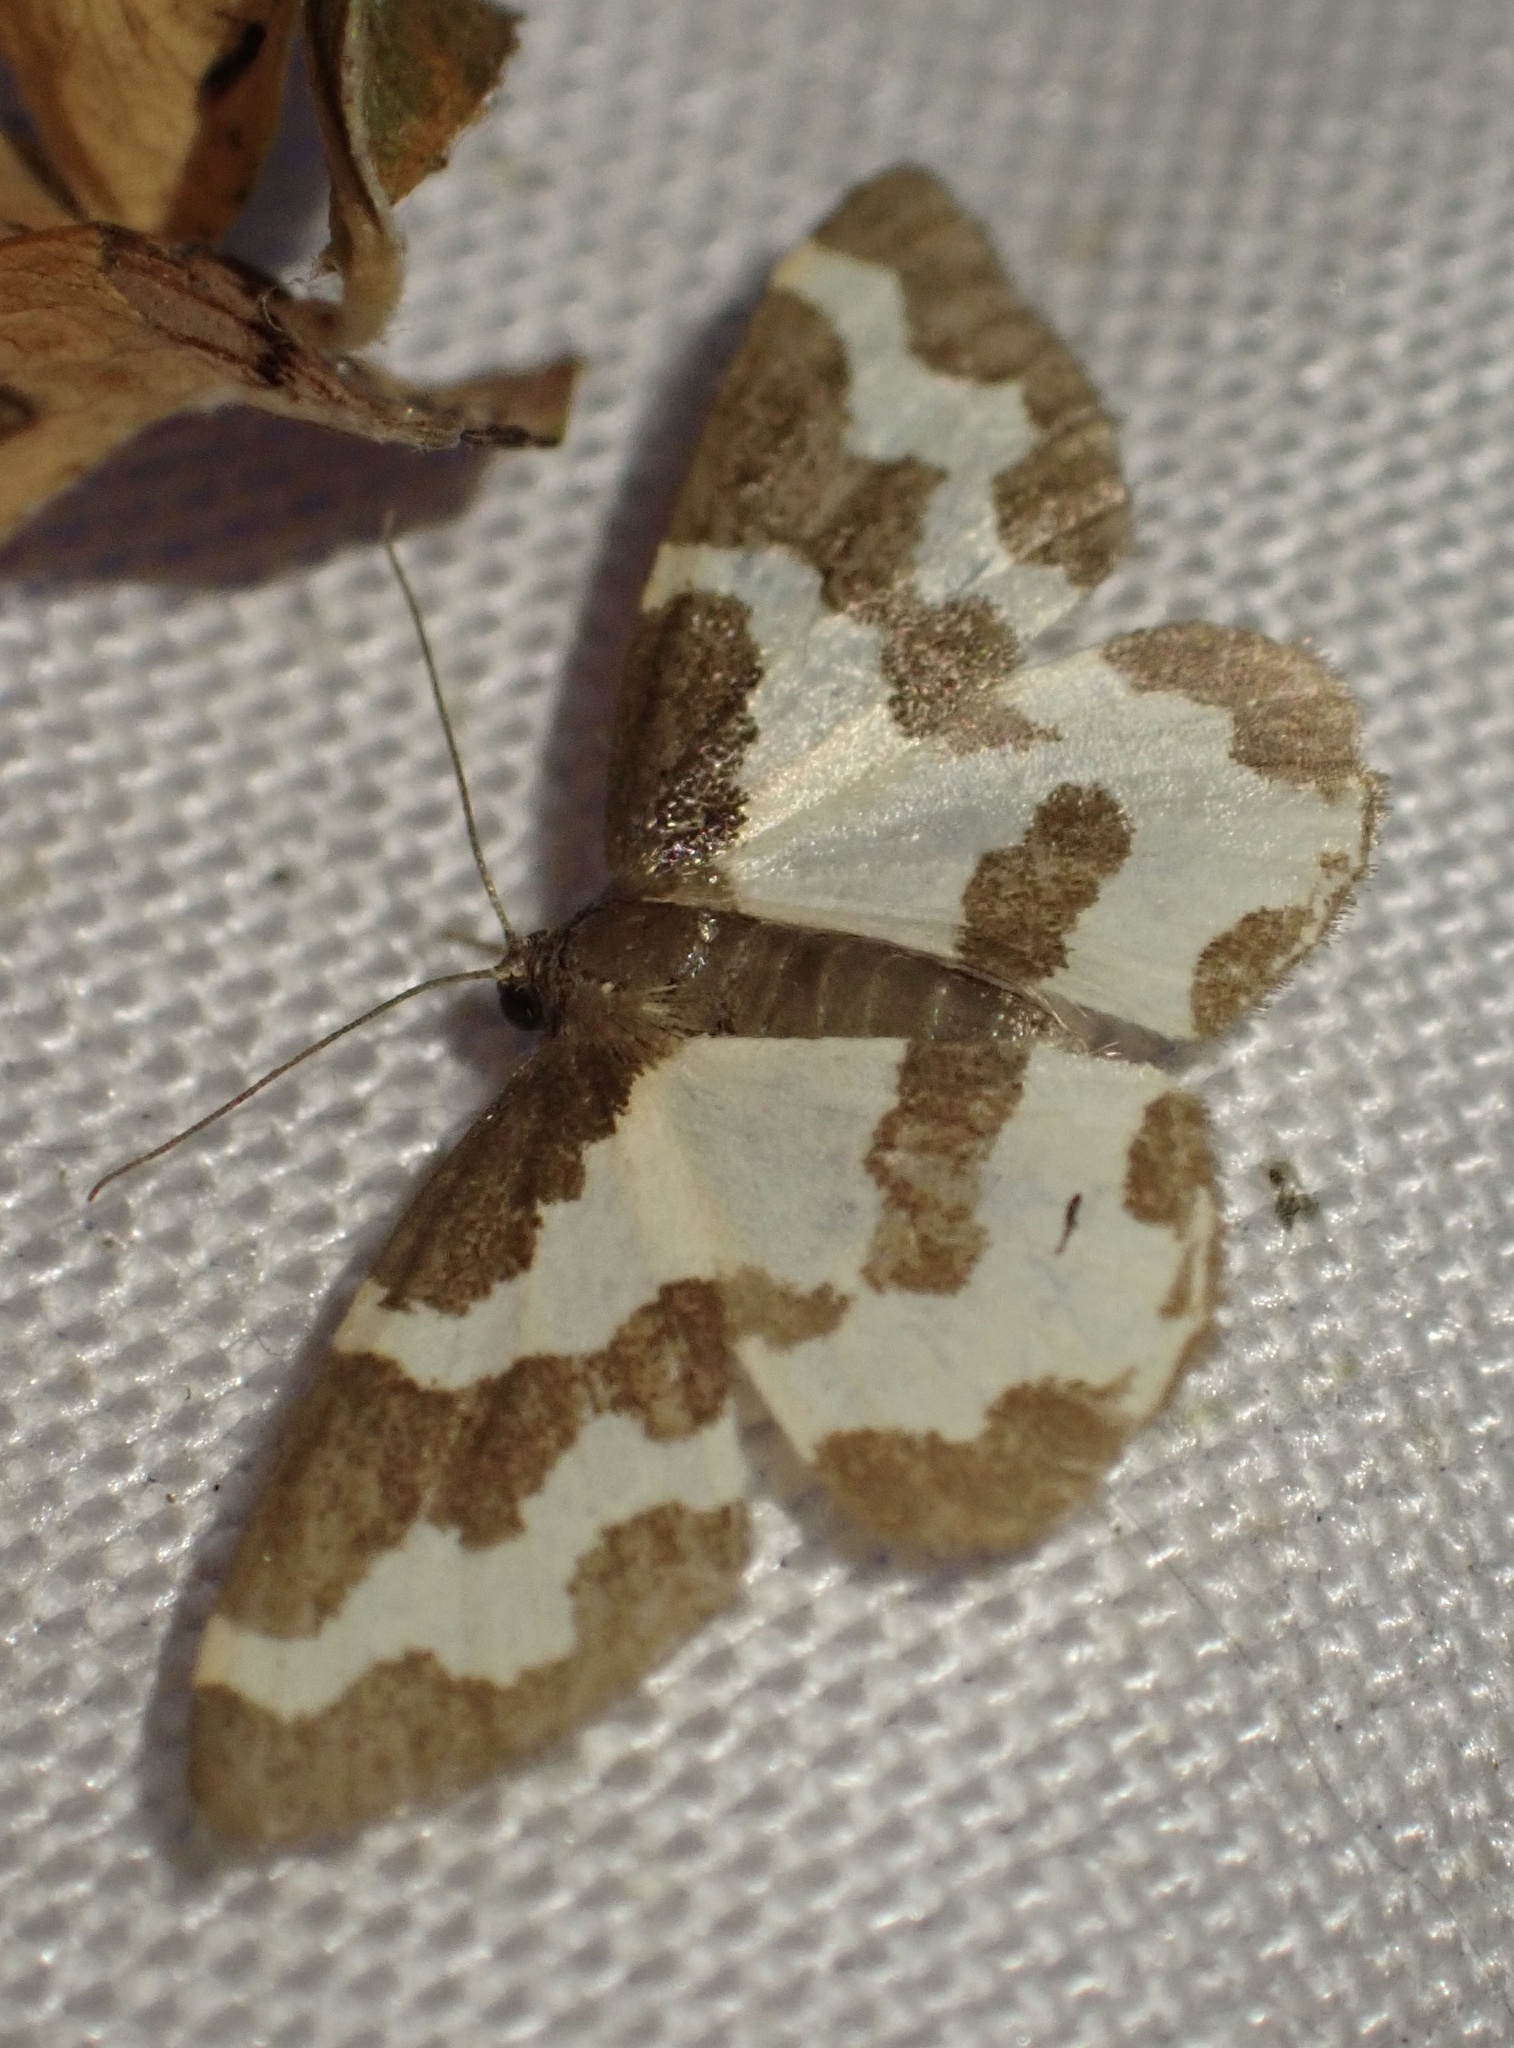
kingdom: Animalia
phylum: Arthropoda
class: Insecta
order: Lepidoptera
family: Geometridae
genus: Lomaspilis
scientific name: Lomaspilis marginata
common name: Clouded border
